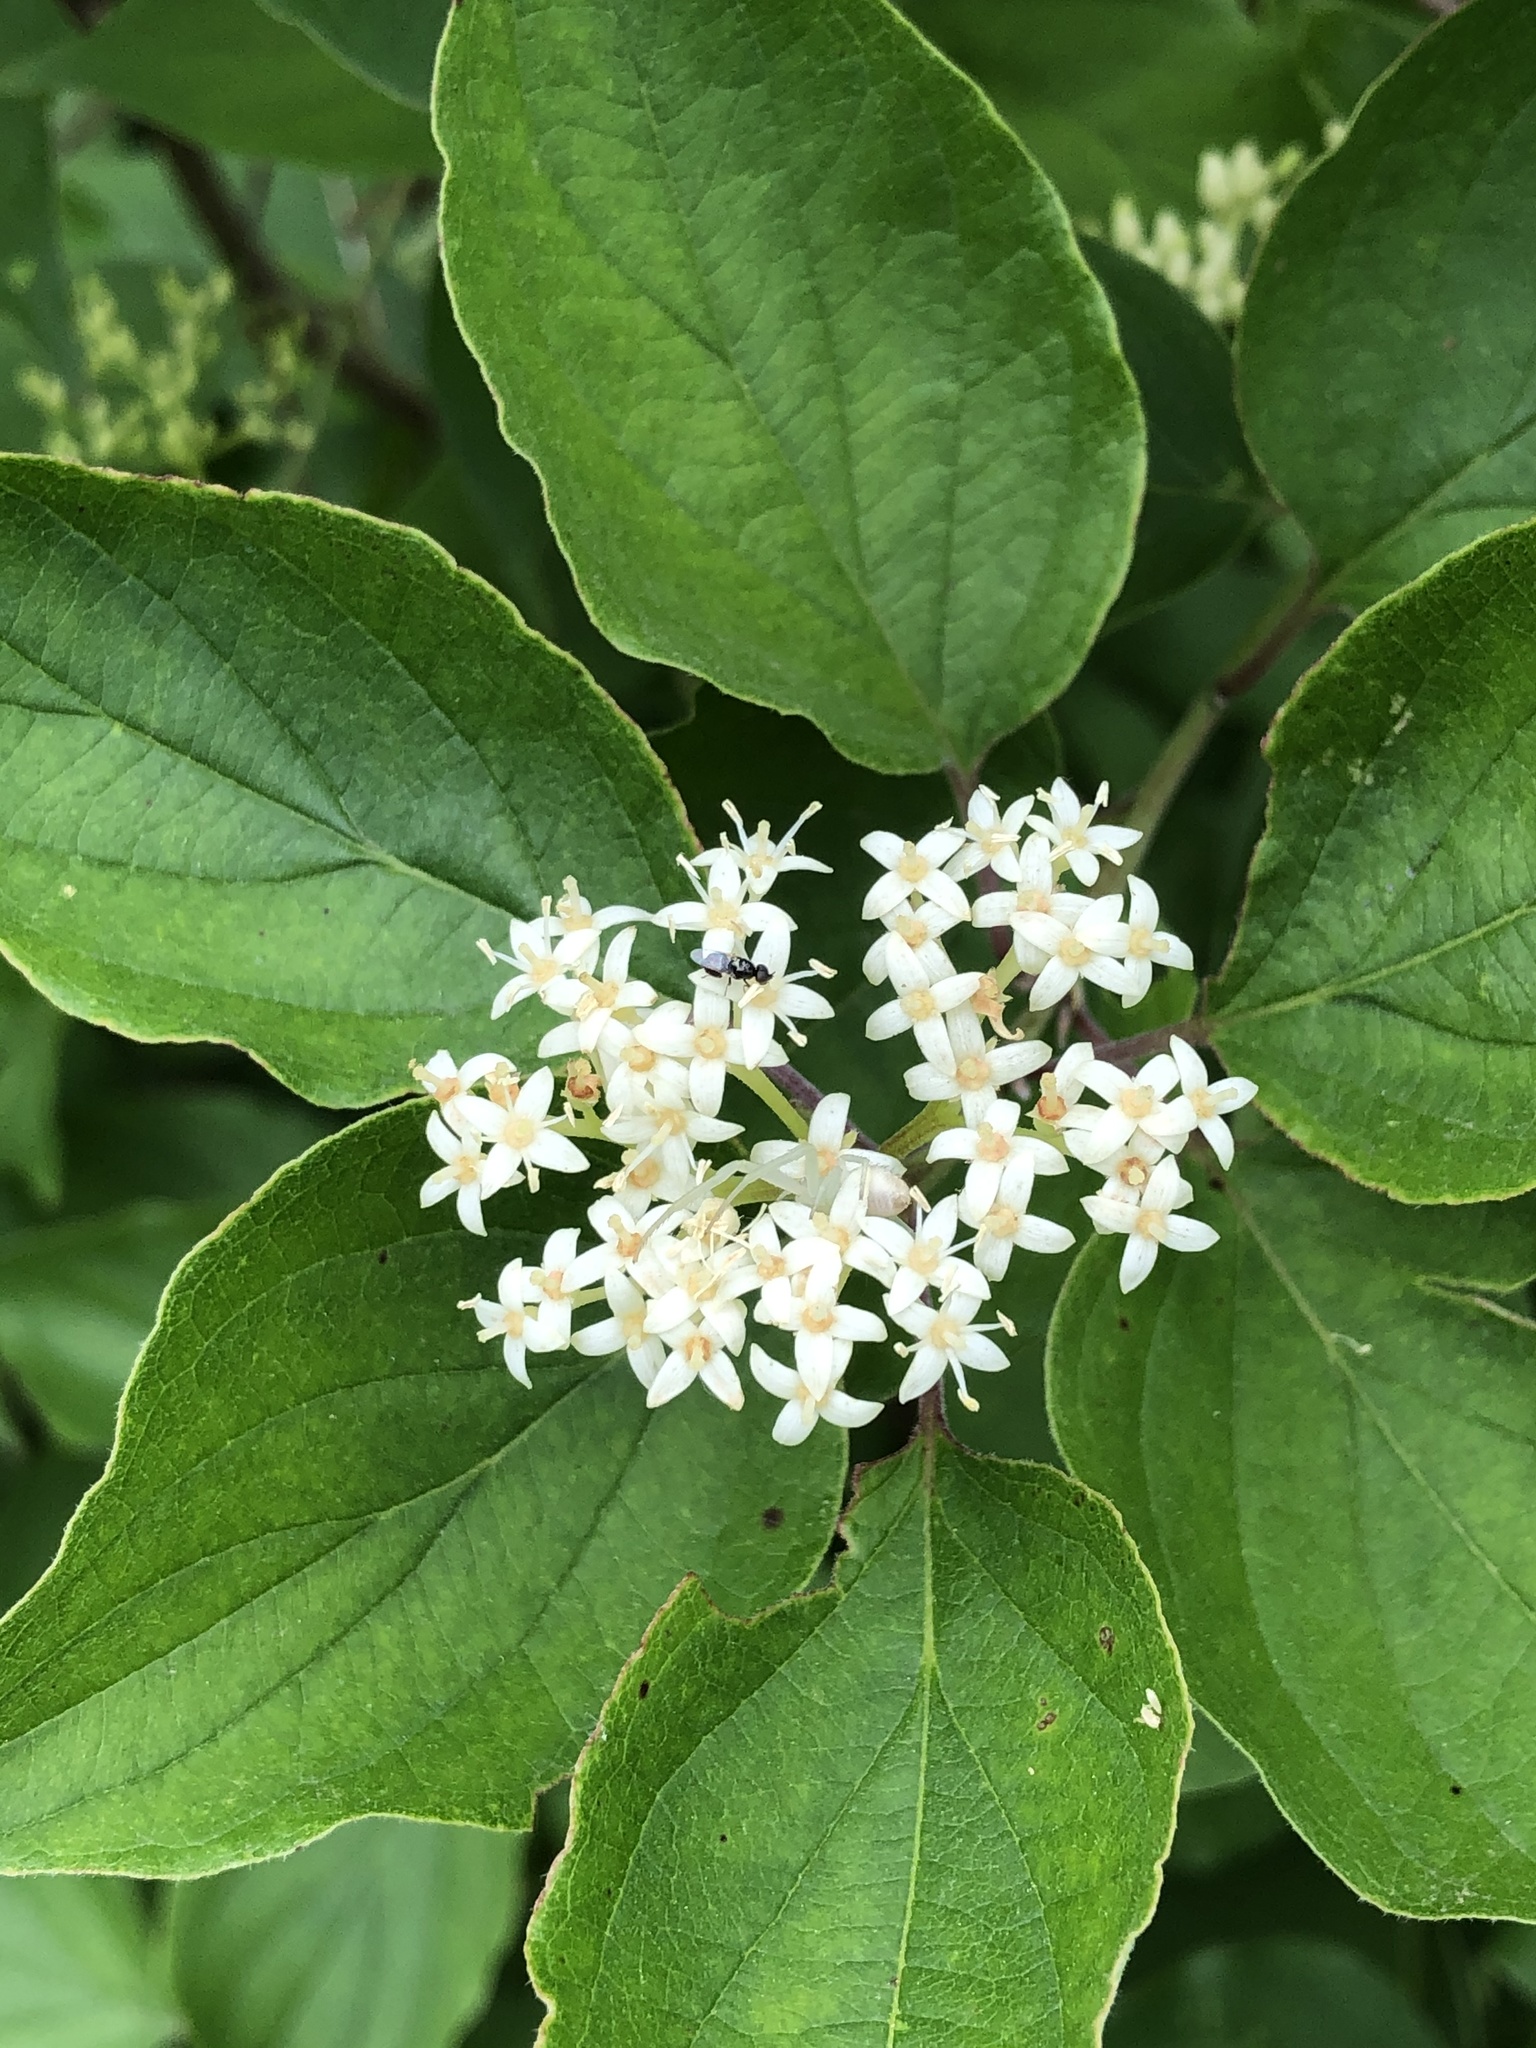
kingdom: Plantae
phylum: Tracheophyta
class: Magnoliopsida
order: Cornales
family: Cornaceae
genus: Cornus
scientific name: Cornus drummondii
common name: Rough-leaf dogwood
